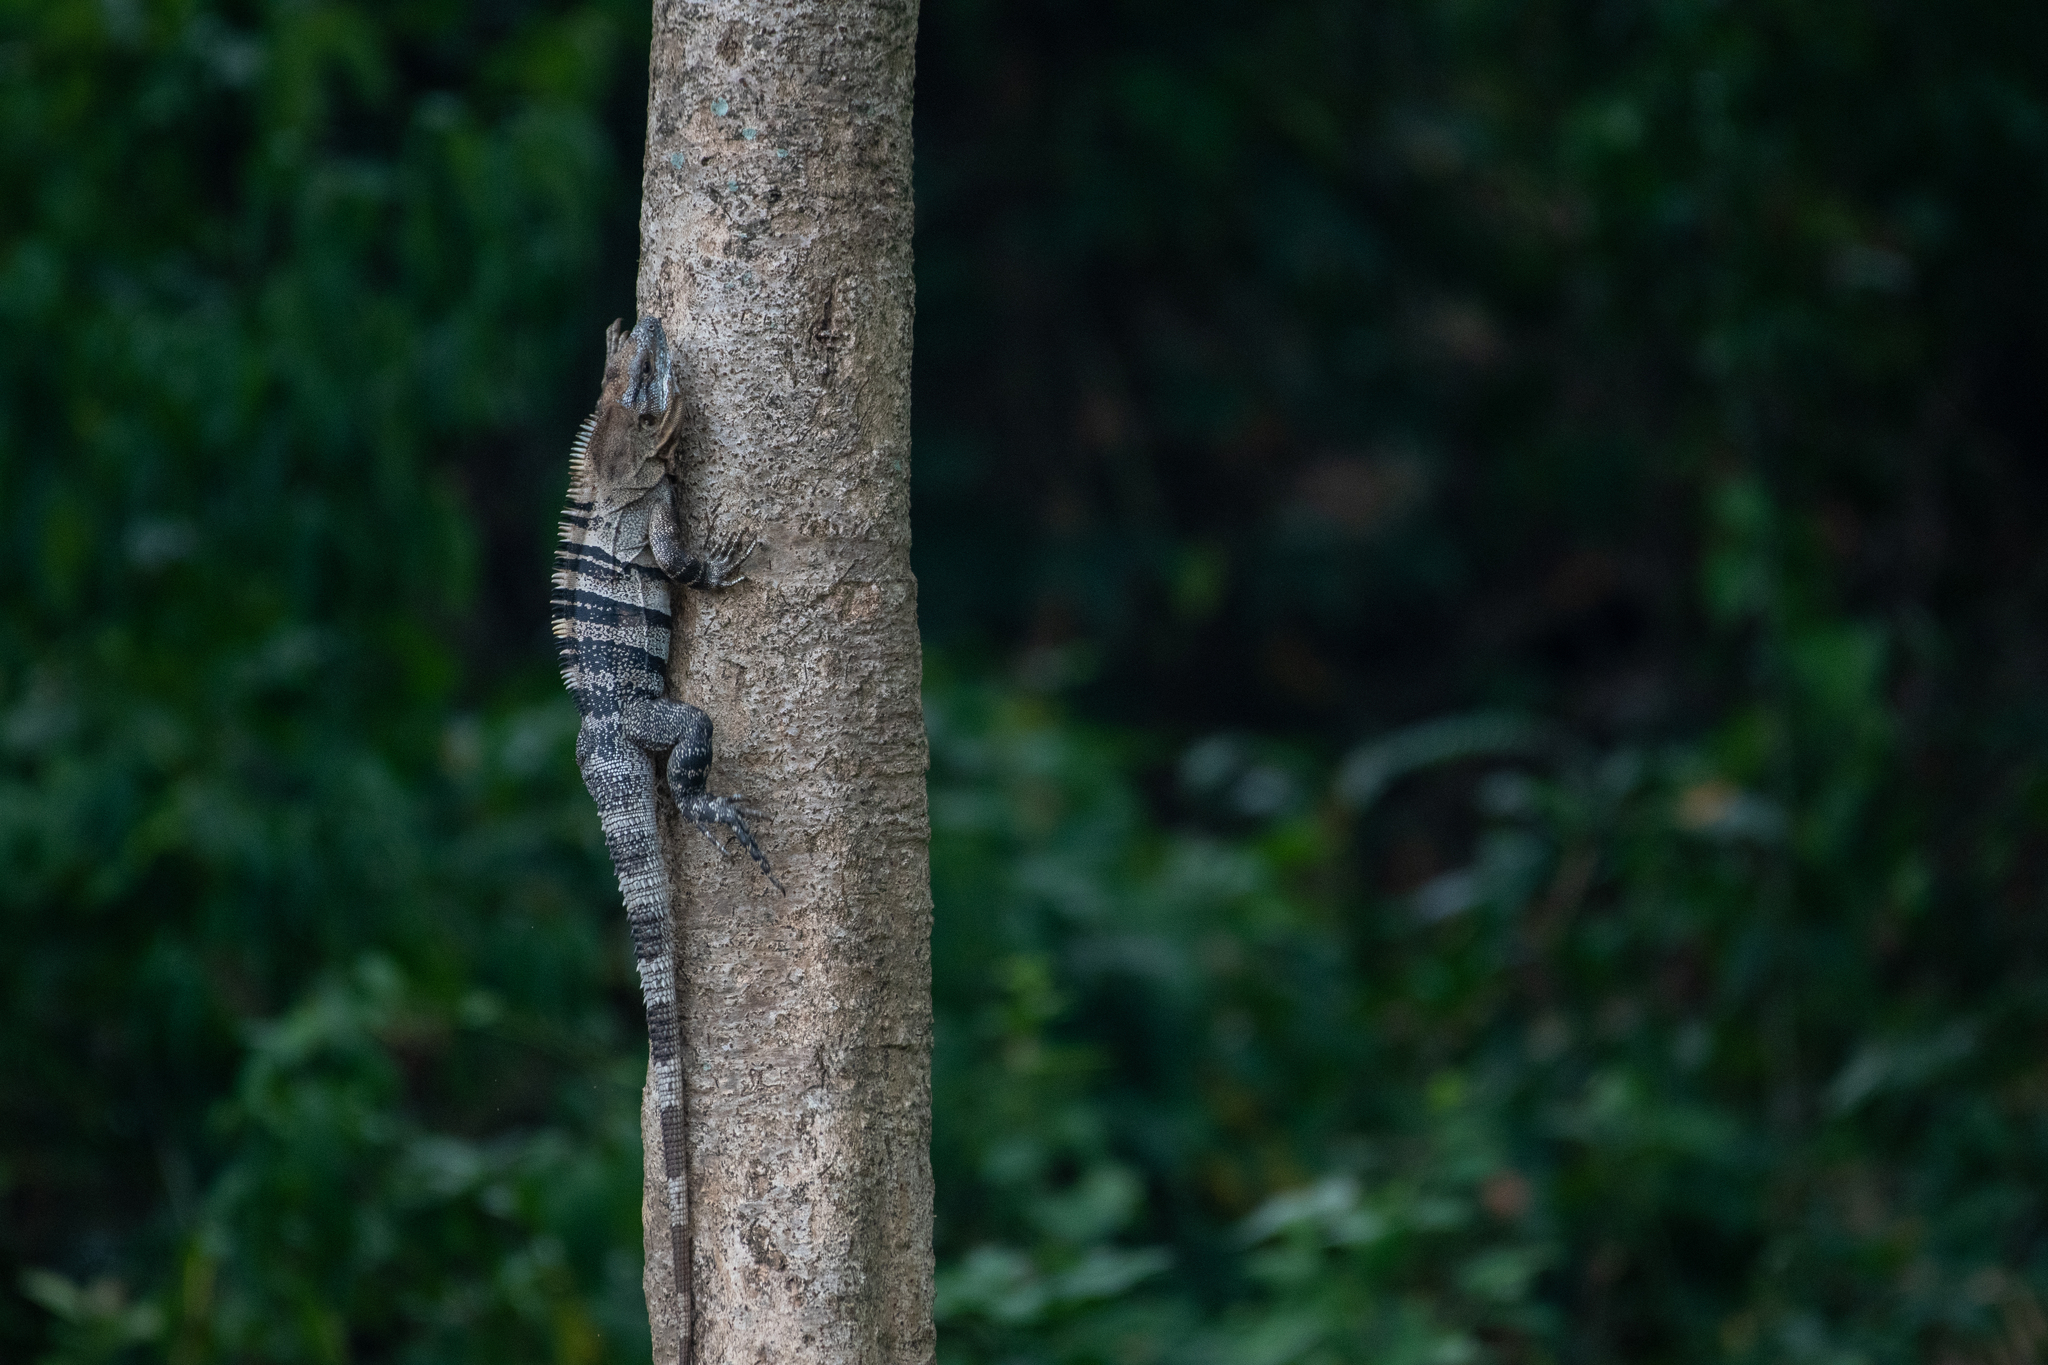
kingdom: Animalia
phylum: Chordata
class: Squamata
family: Iguanidae
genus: Ctenosaura
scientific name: Ctenosaura similis
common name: Black spiny-tailed iguana
